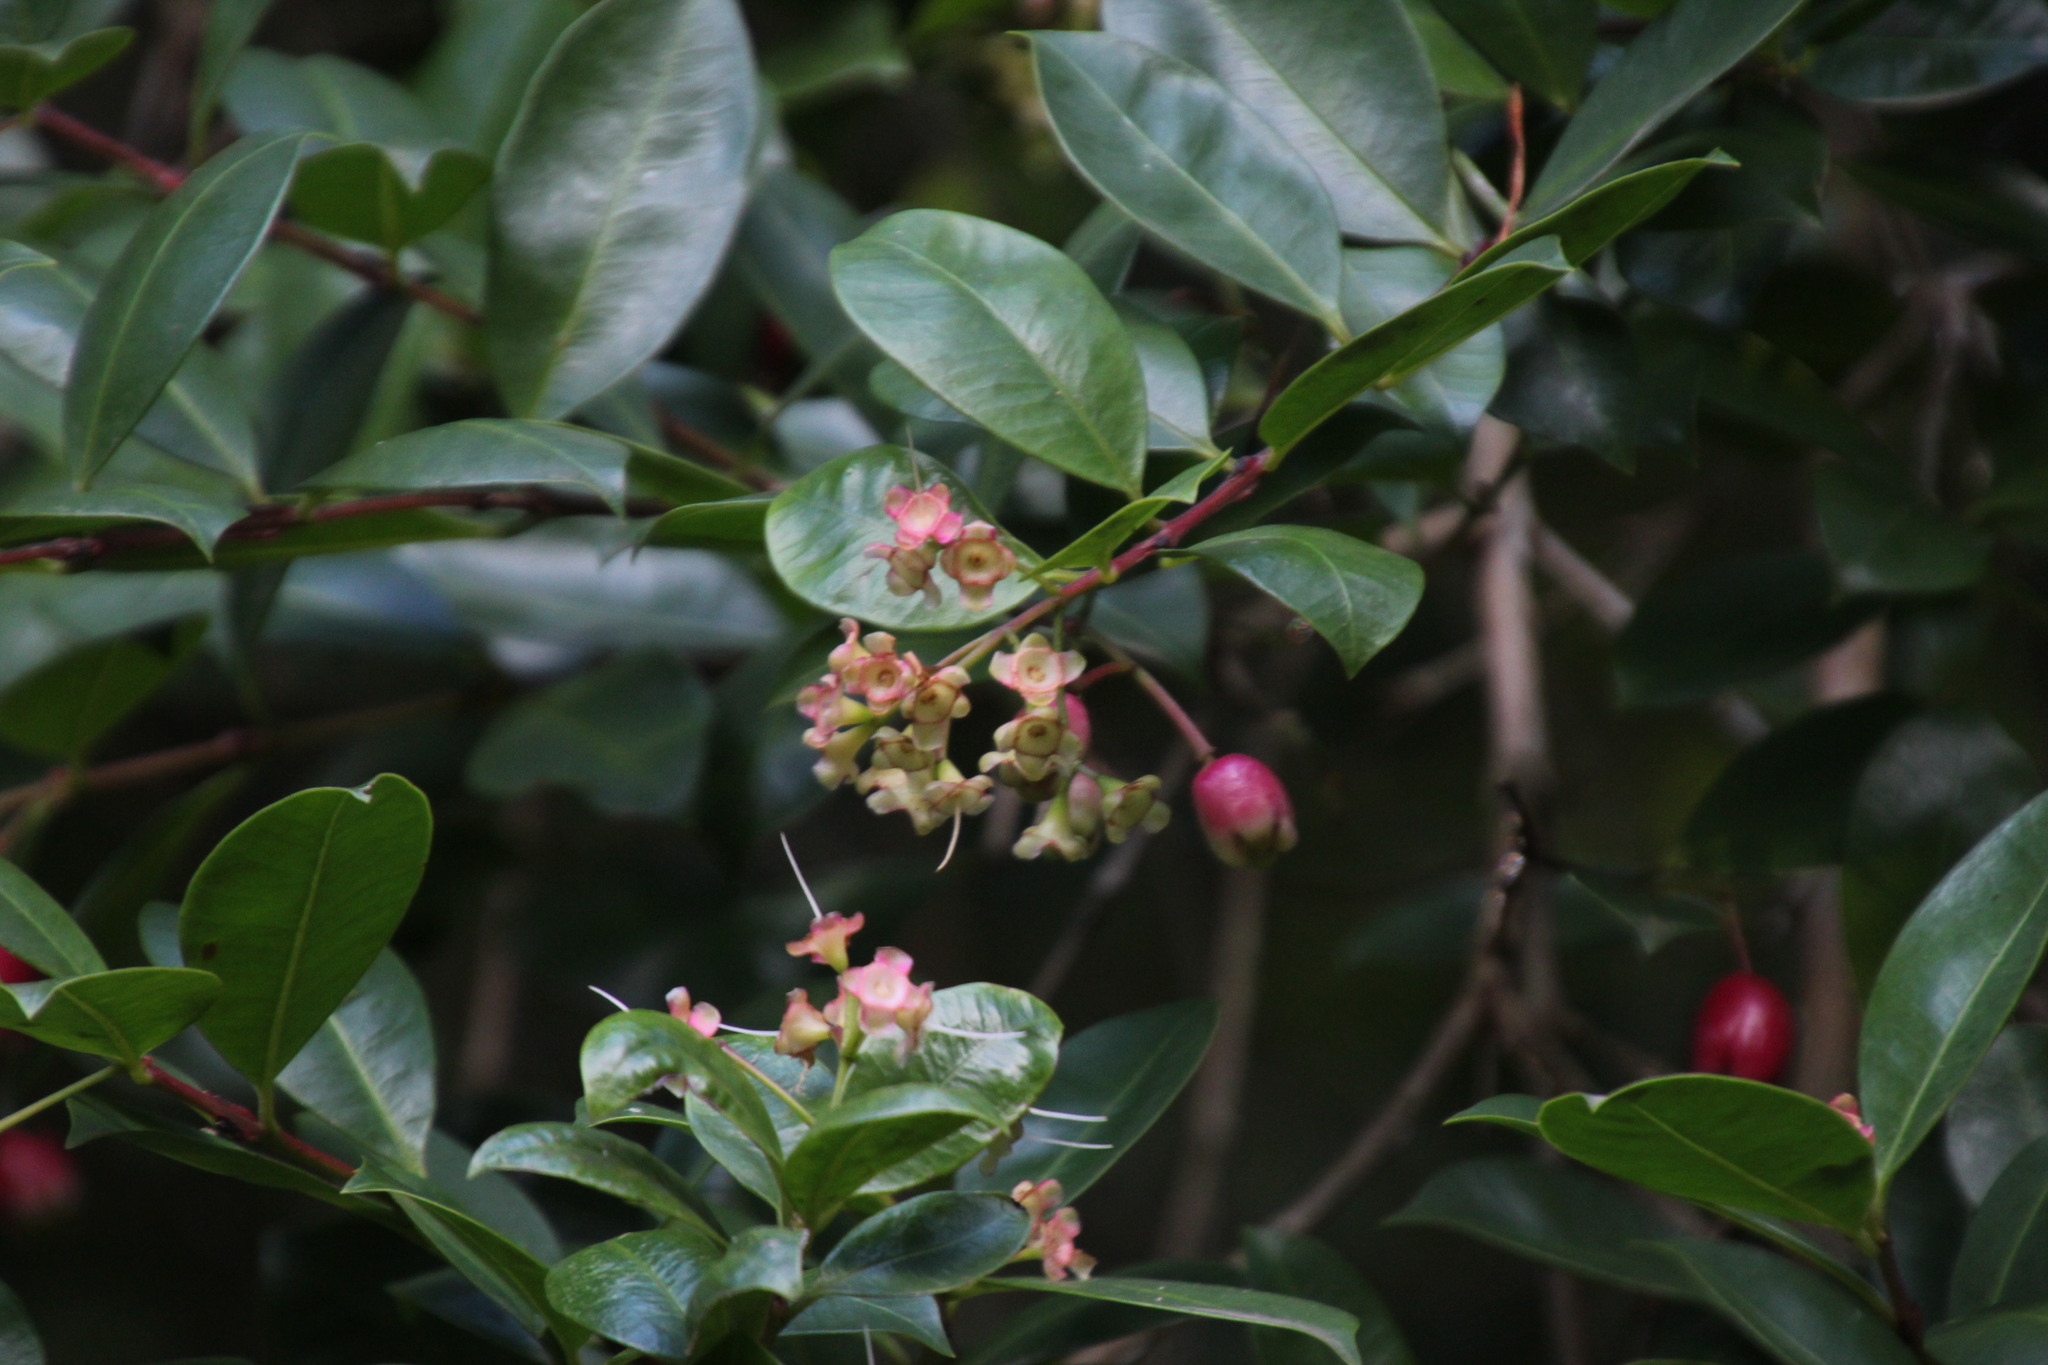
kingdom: Plantae
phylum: Tracheophyta
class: Magnoliopsida
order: Myrtales
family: Myrtaceae
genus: Syzygium
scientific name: Syzygium australe
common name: Australian brush-cherry
